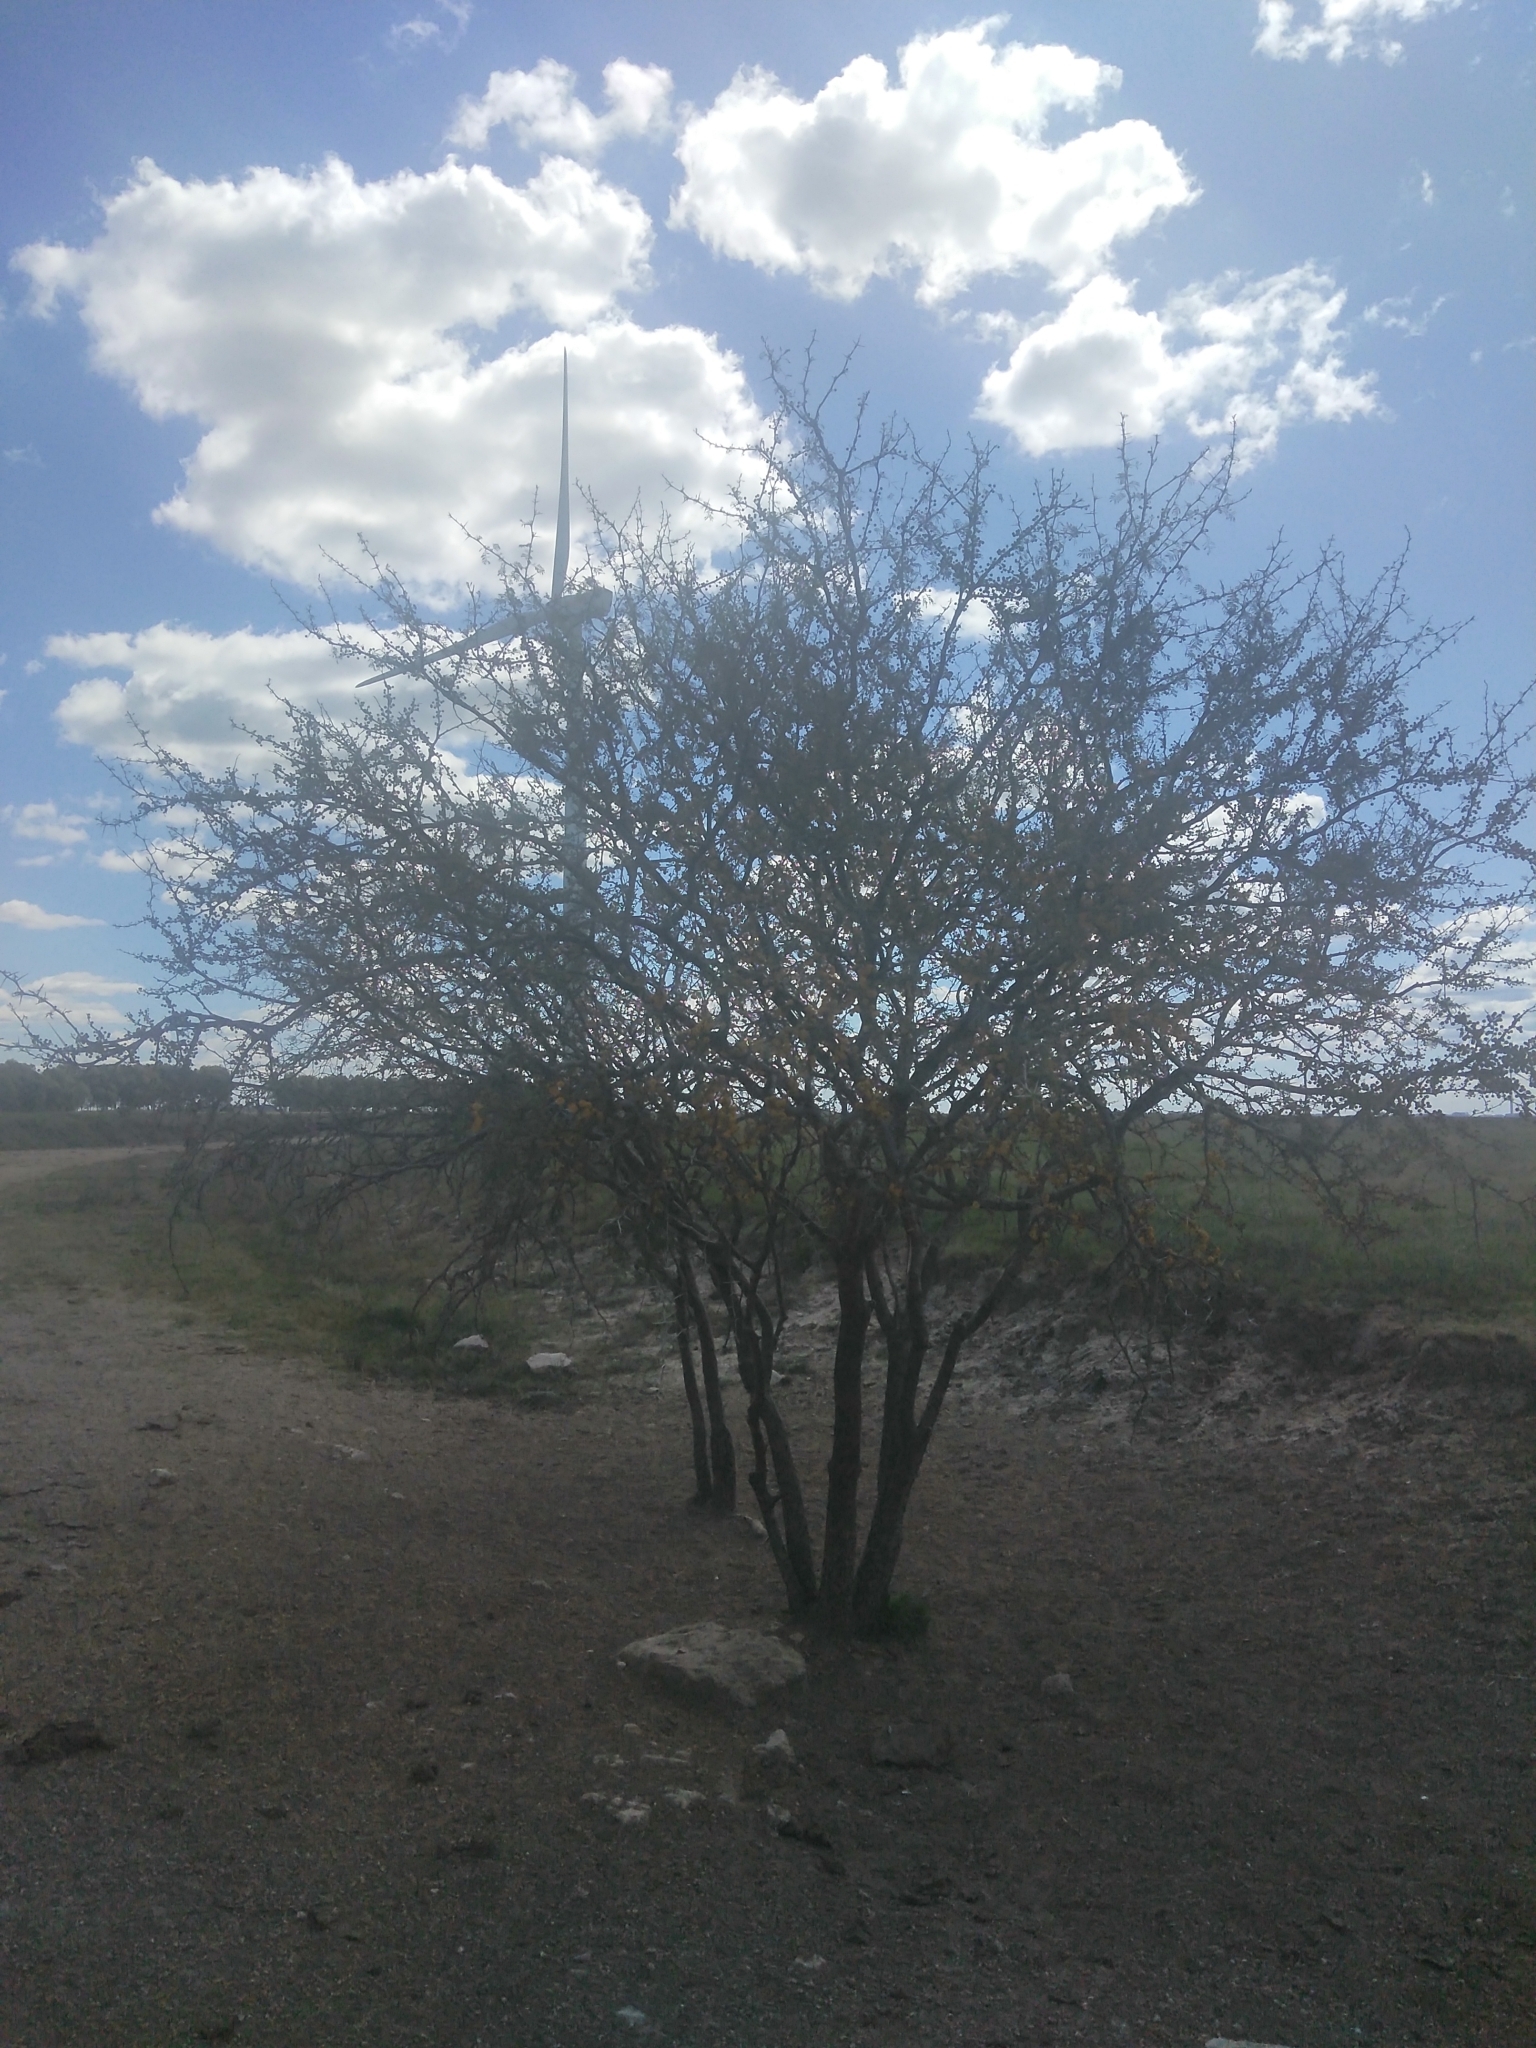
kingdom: Plantae
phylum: Tracheophyta
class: Magnoliopsida
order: Fabales
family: Fabaceae
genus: Vachellia
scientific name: Vachellia caven
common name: Roman cassie
